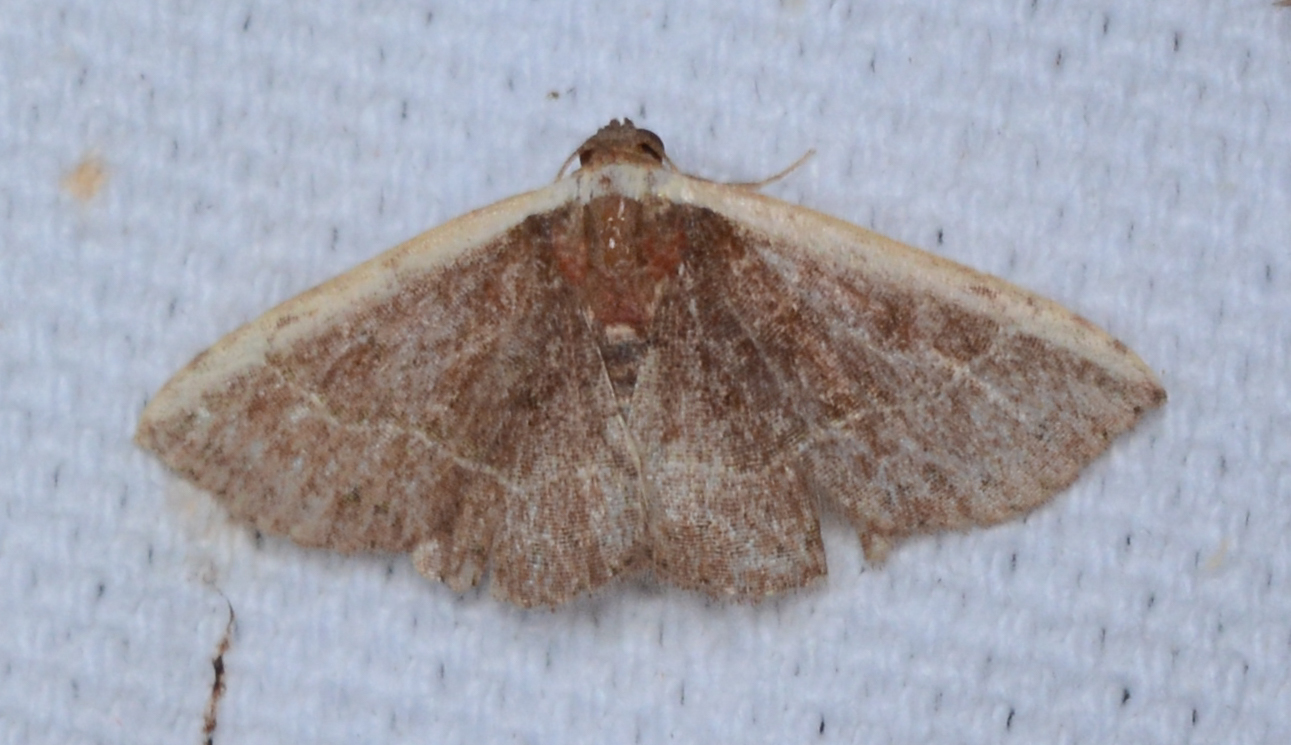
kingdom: Animalia
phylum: Arthropoda
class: Insecta
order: Lepidoptera
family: Noctuidae
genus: Ozarba
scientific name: Ozarba albocostaliata
